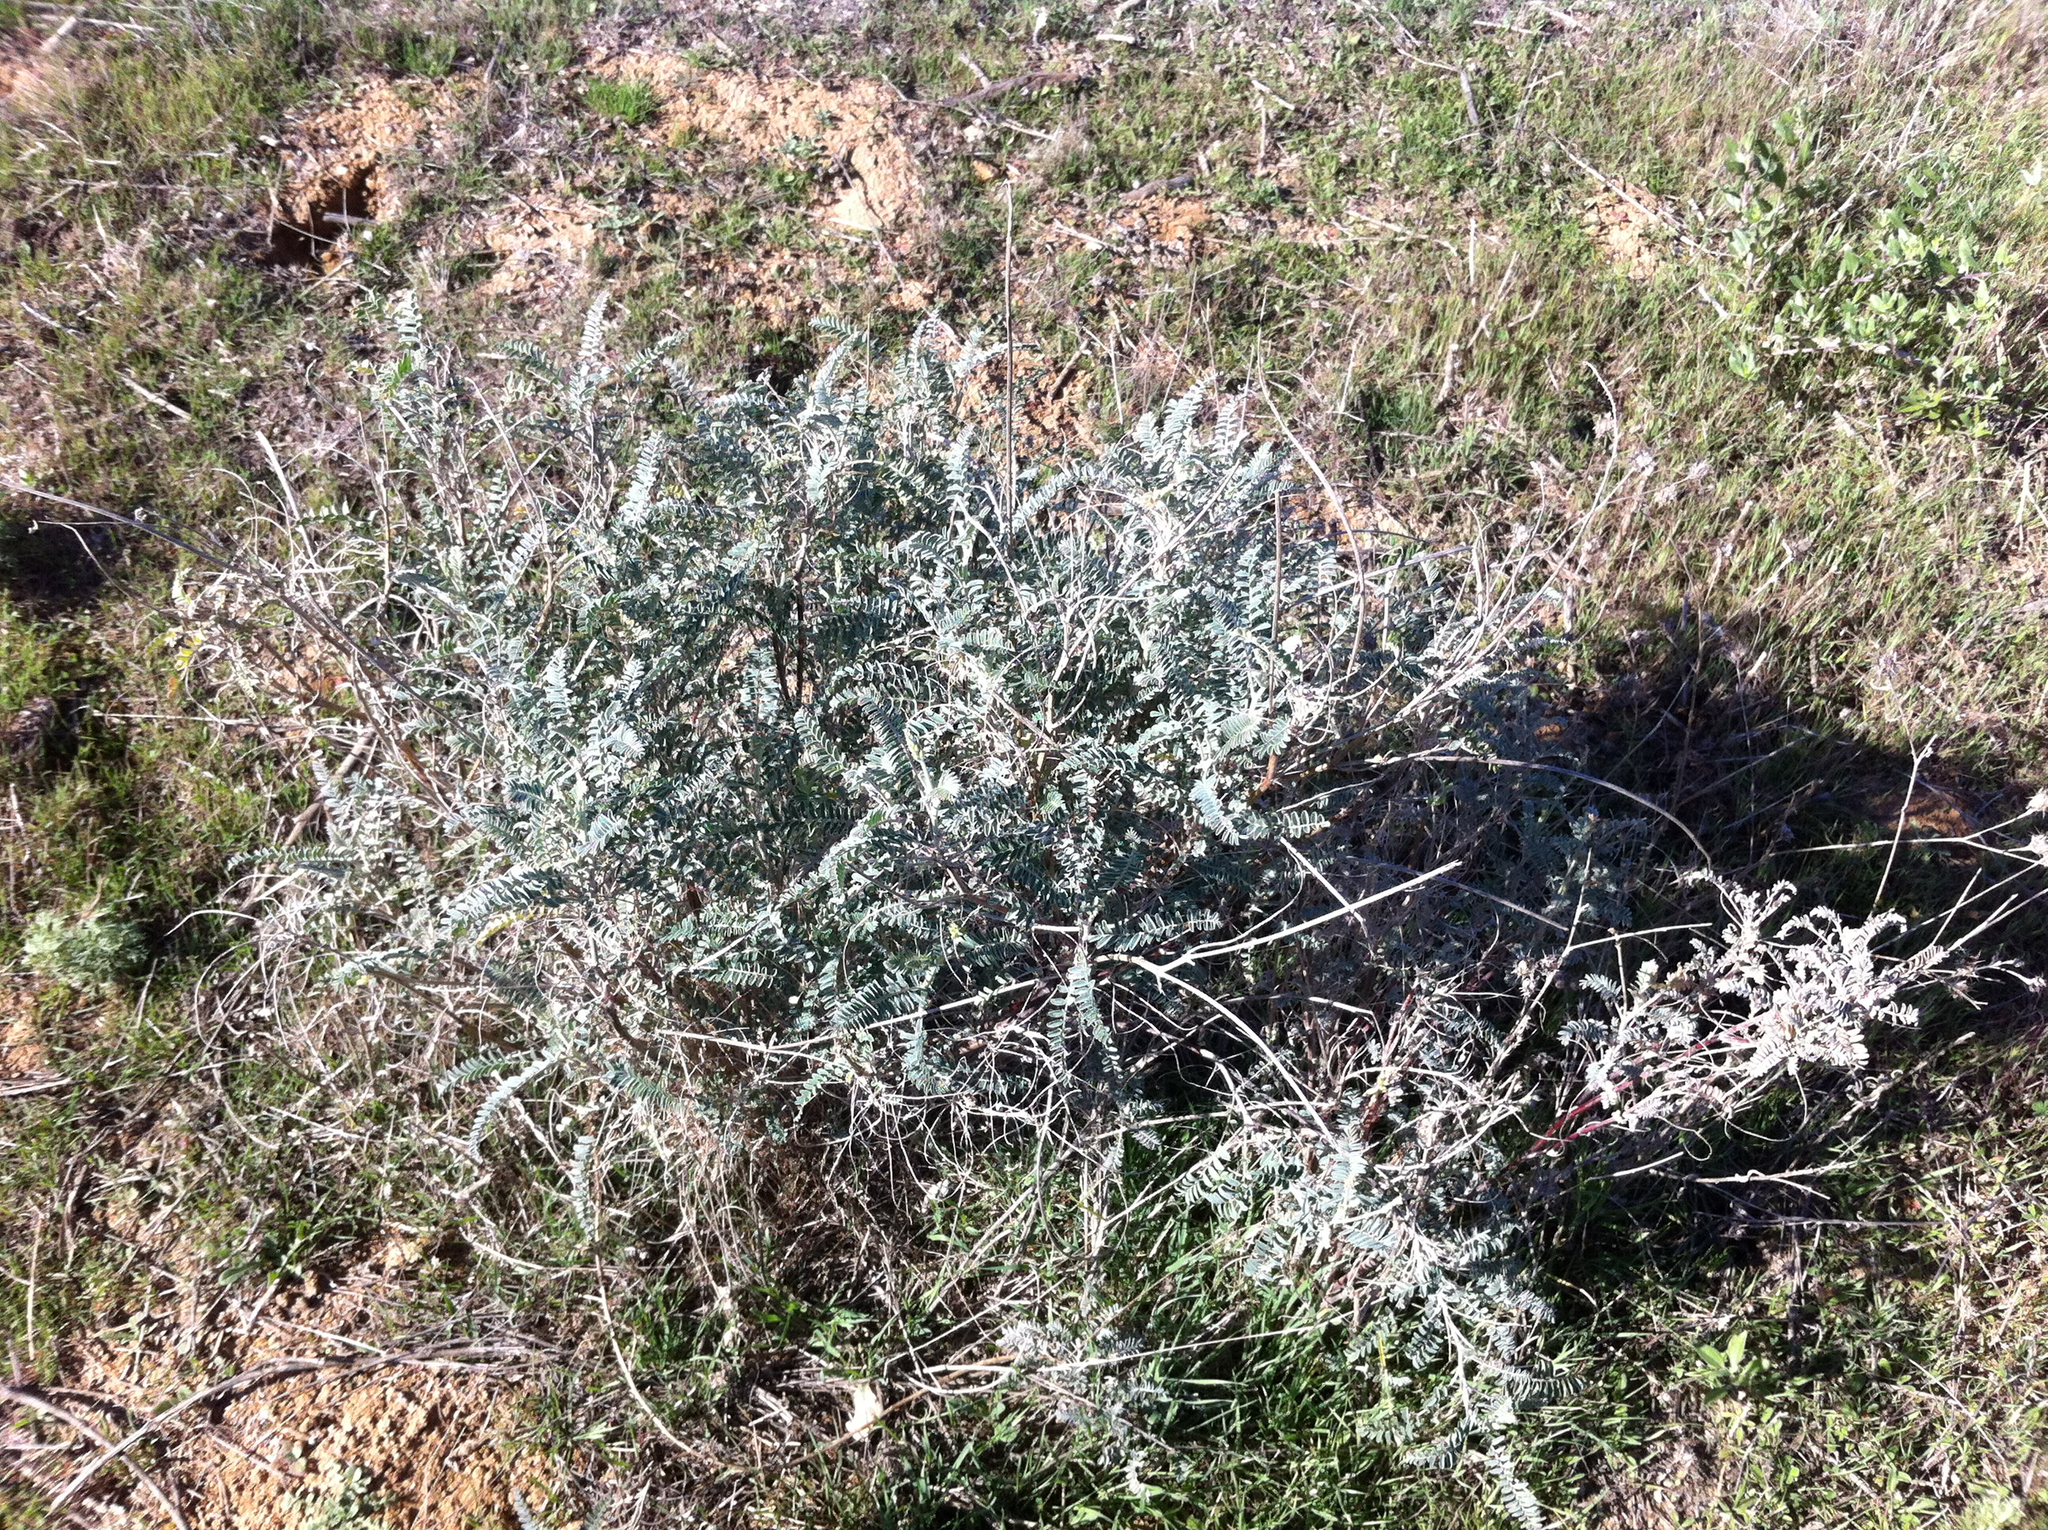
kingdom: Plantae
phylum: Tracheophyta
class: Magnoliopsida
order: Fabales
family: Fabaceae
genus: Astragalus
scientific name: Astragalus trichopodus
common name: Santa barbara milk-vetch
